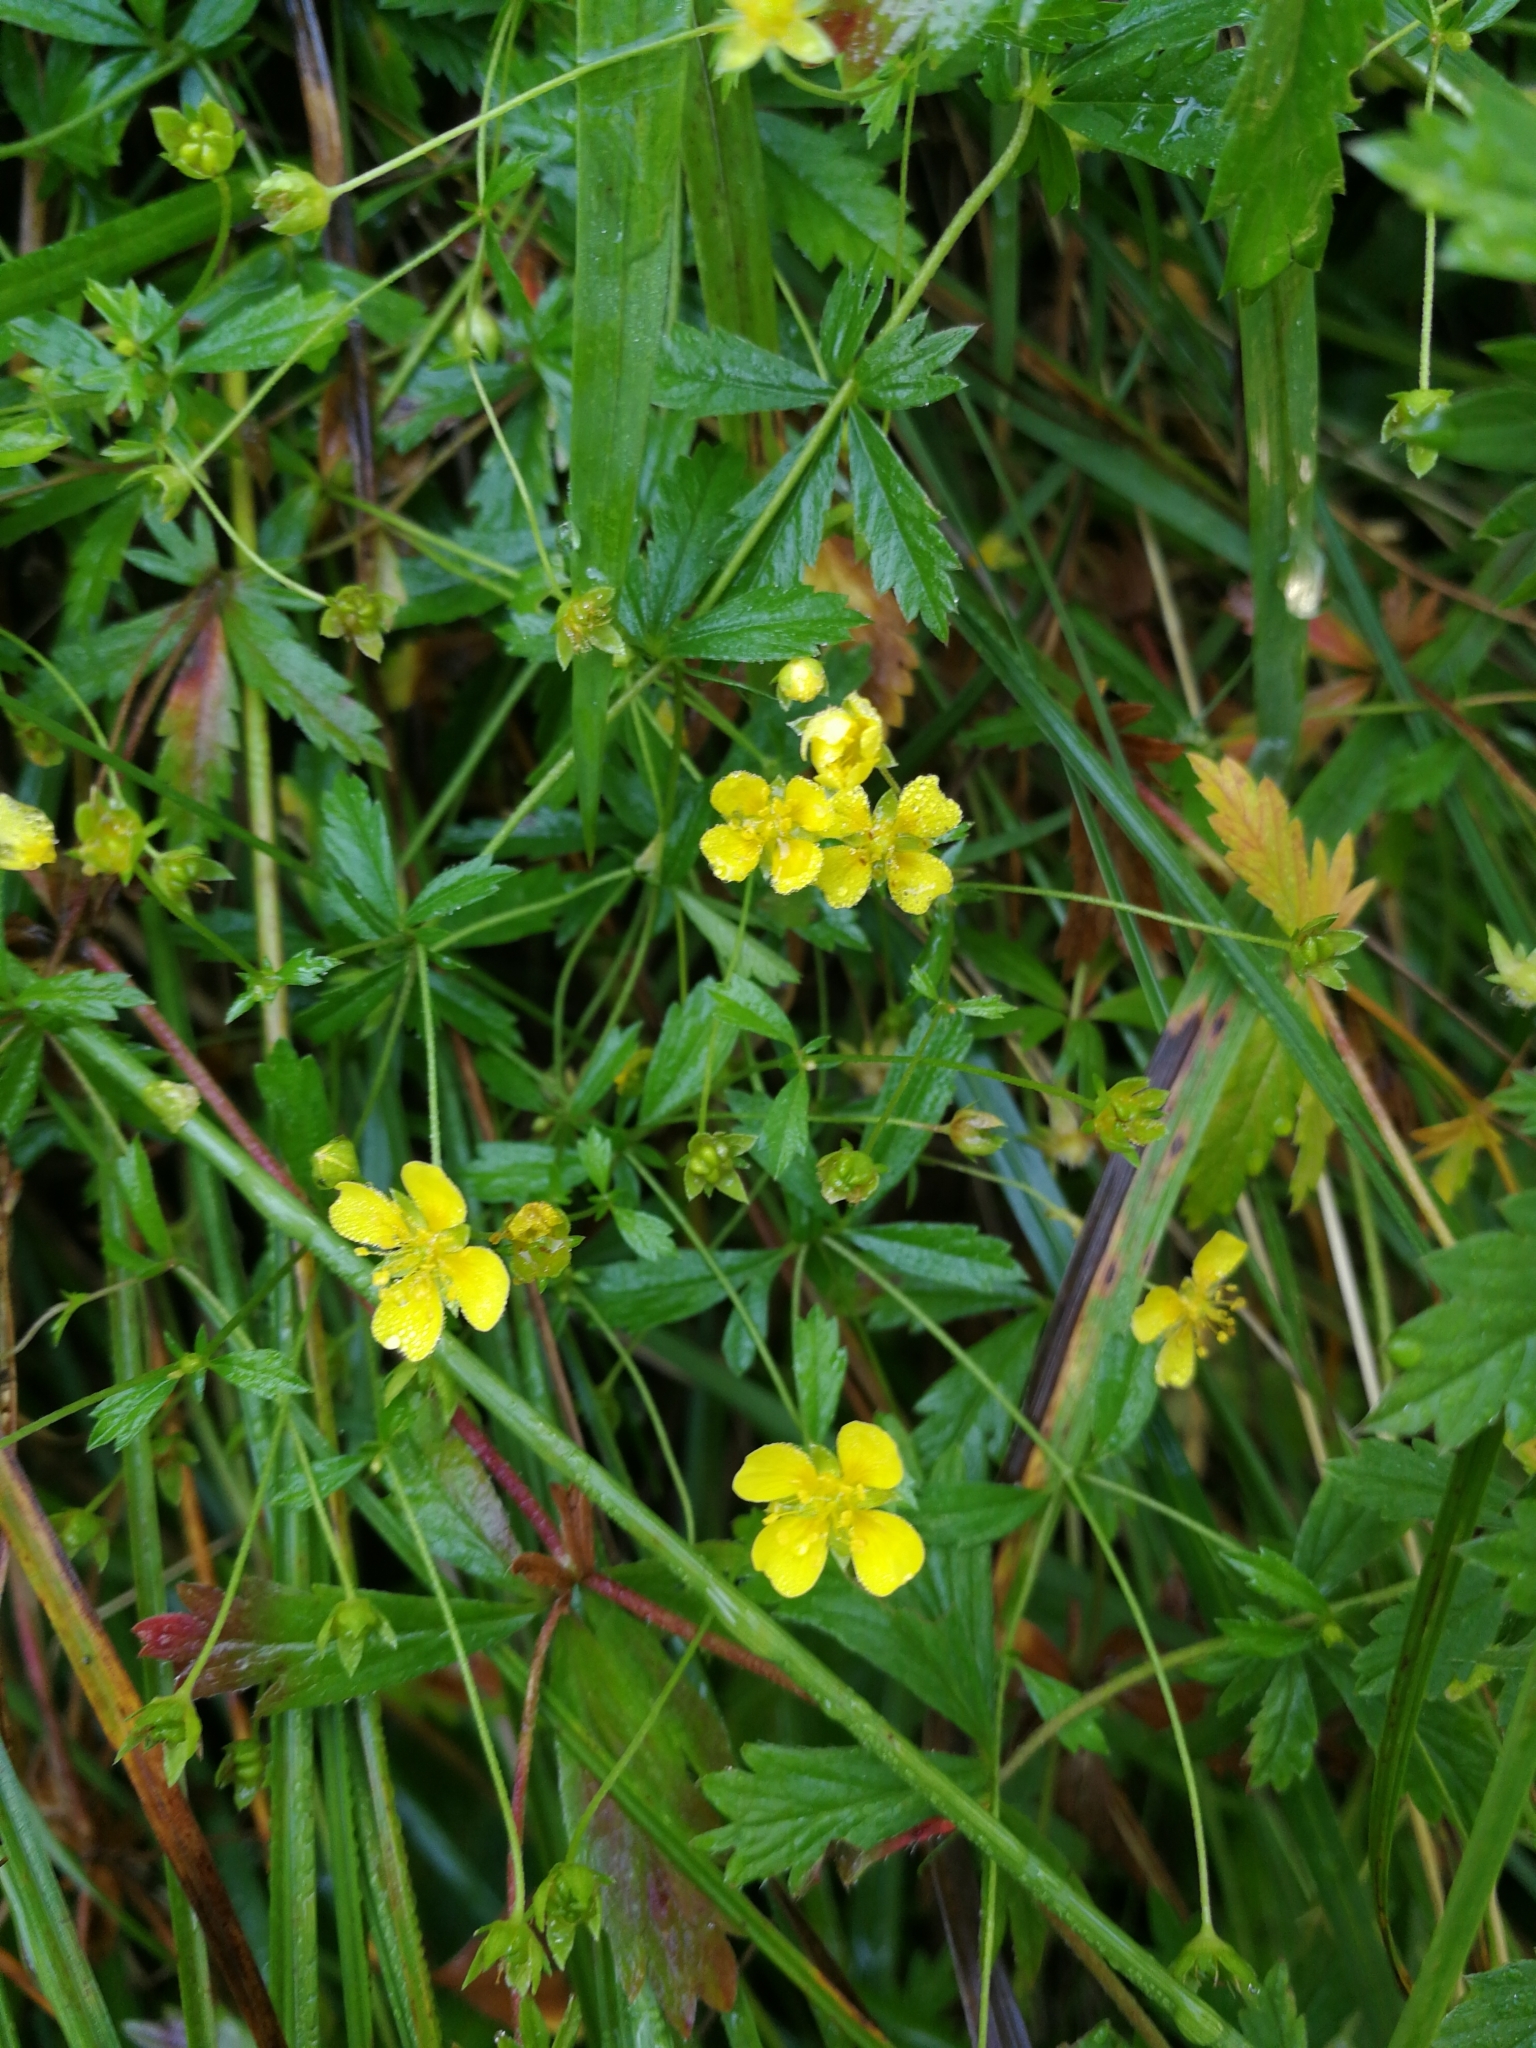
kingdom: Plantae
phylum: Tracheophyta
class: Magnoliopsida
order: Rosales
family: Rosaceae
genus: Potentilla
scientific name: Potentilla erecta
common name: Tormentil
